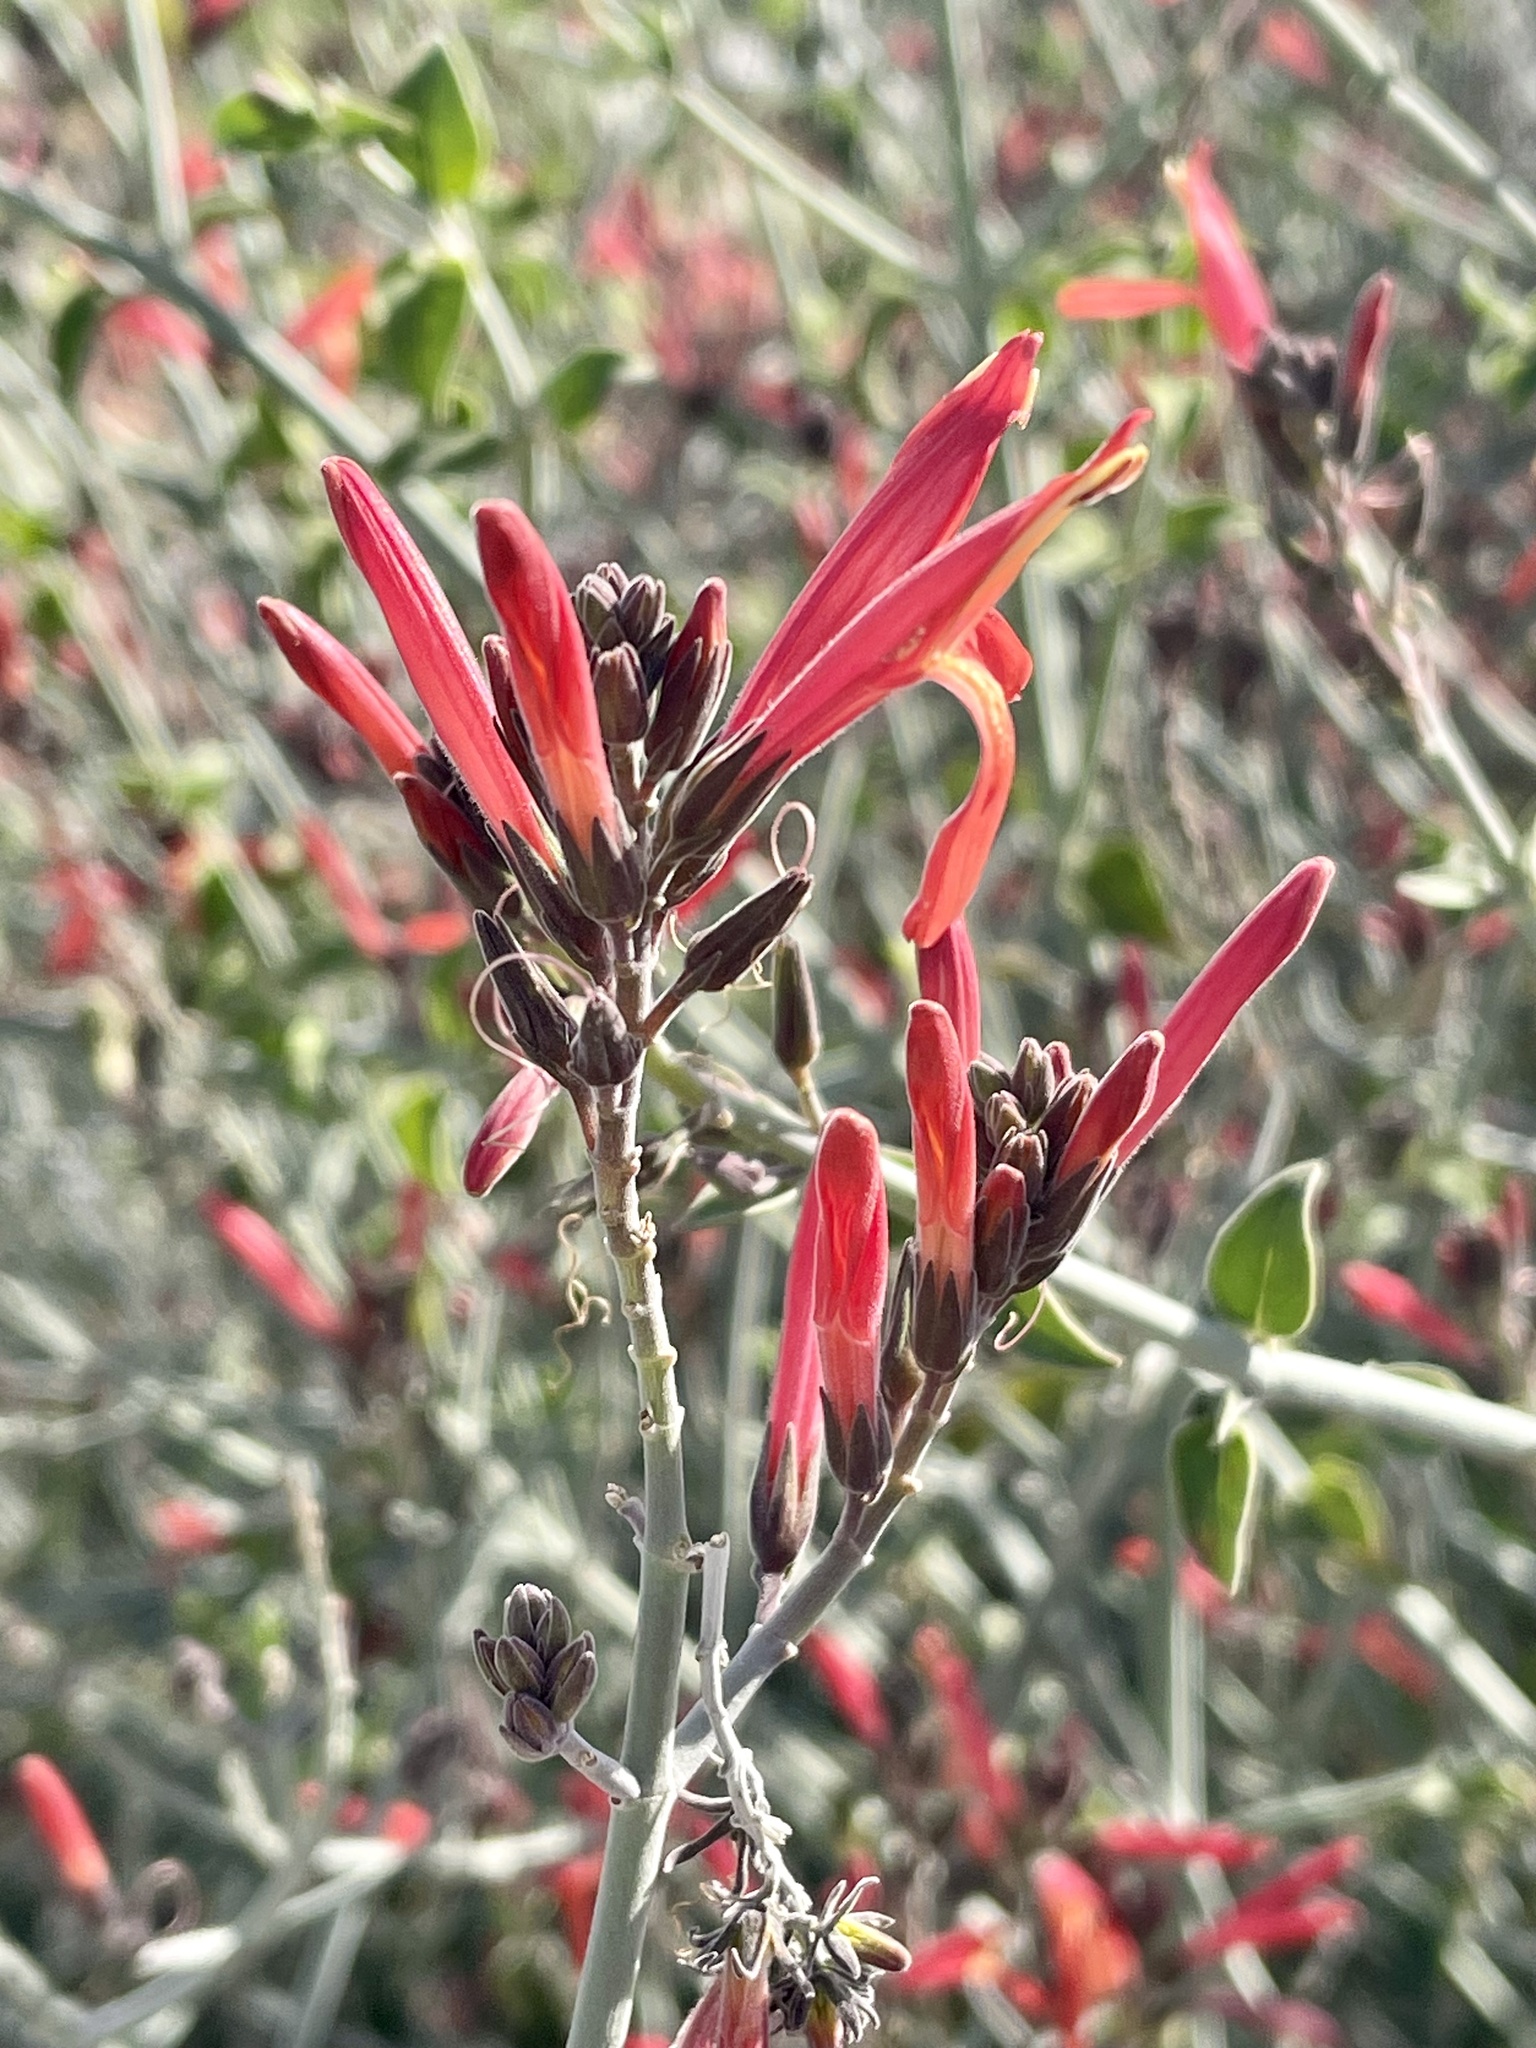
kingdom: Plantae
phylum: Tracheophyta
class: Magnoliopsida
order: Lamiales
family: Acanthaceae
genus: Justicia
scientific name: Justicia californica
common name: Chuparosa-honeysuckle
